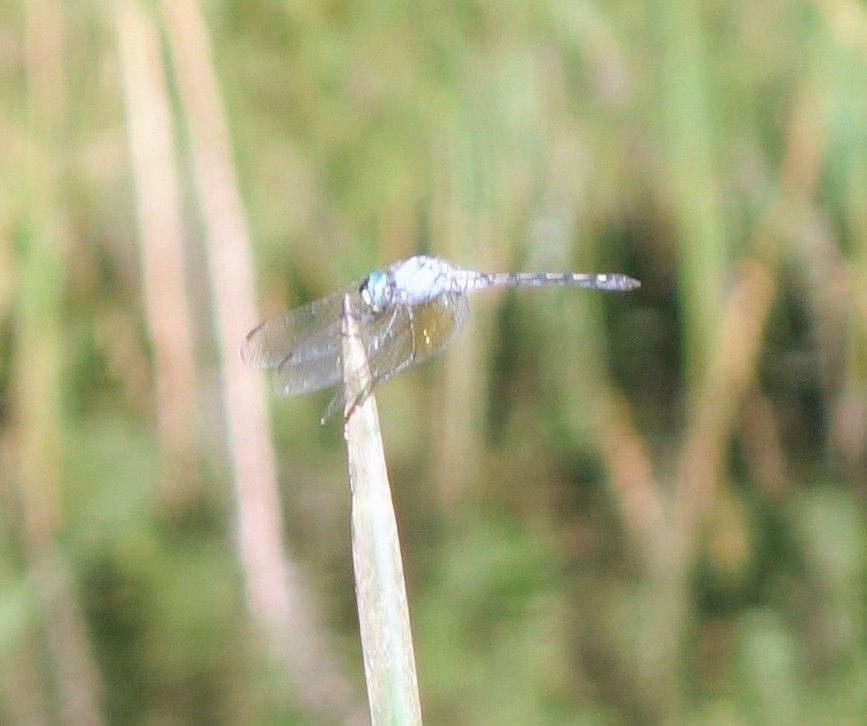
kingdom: Animalia
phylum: Arthropoda
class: Insecta
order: Odonata
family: Libellulidae
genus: Trithemis
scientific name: Trithemis stictica
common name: Jaunty dropwing
